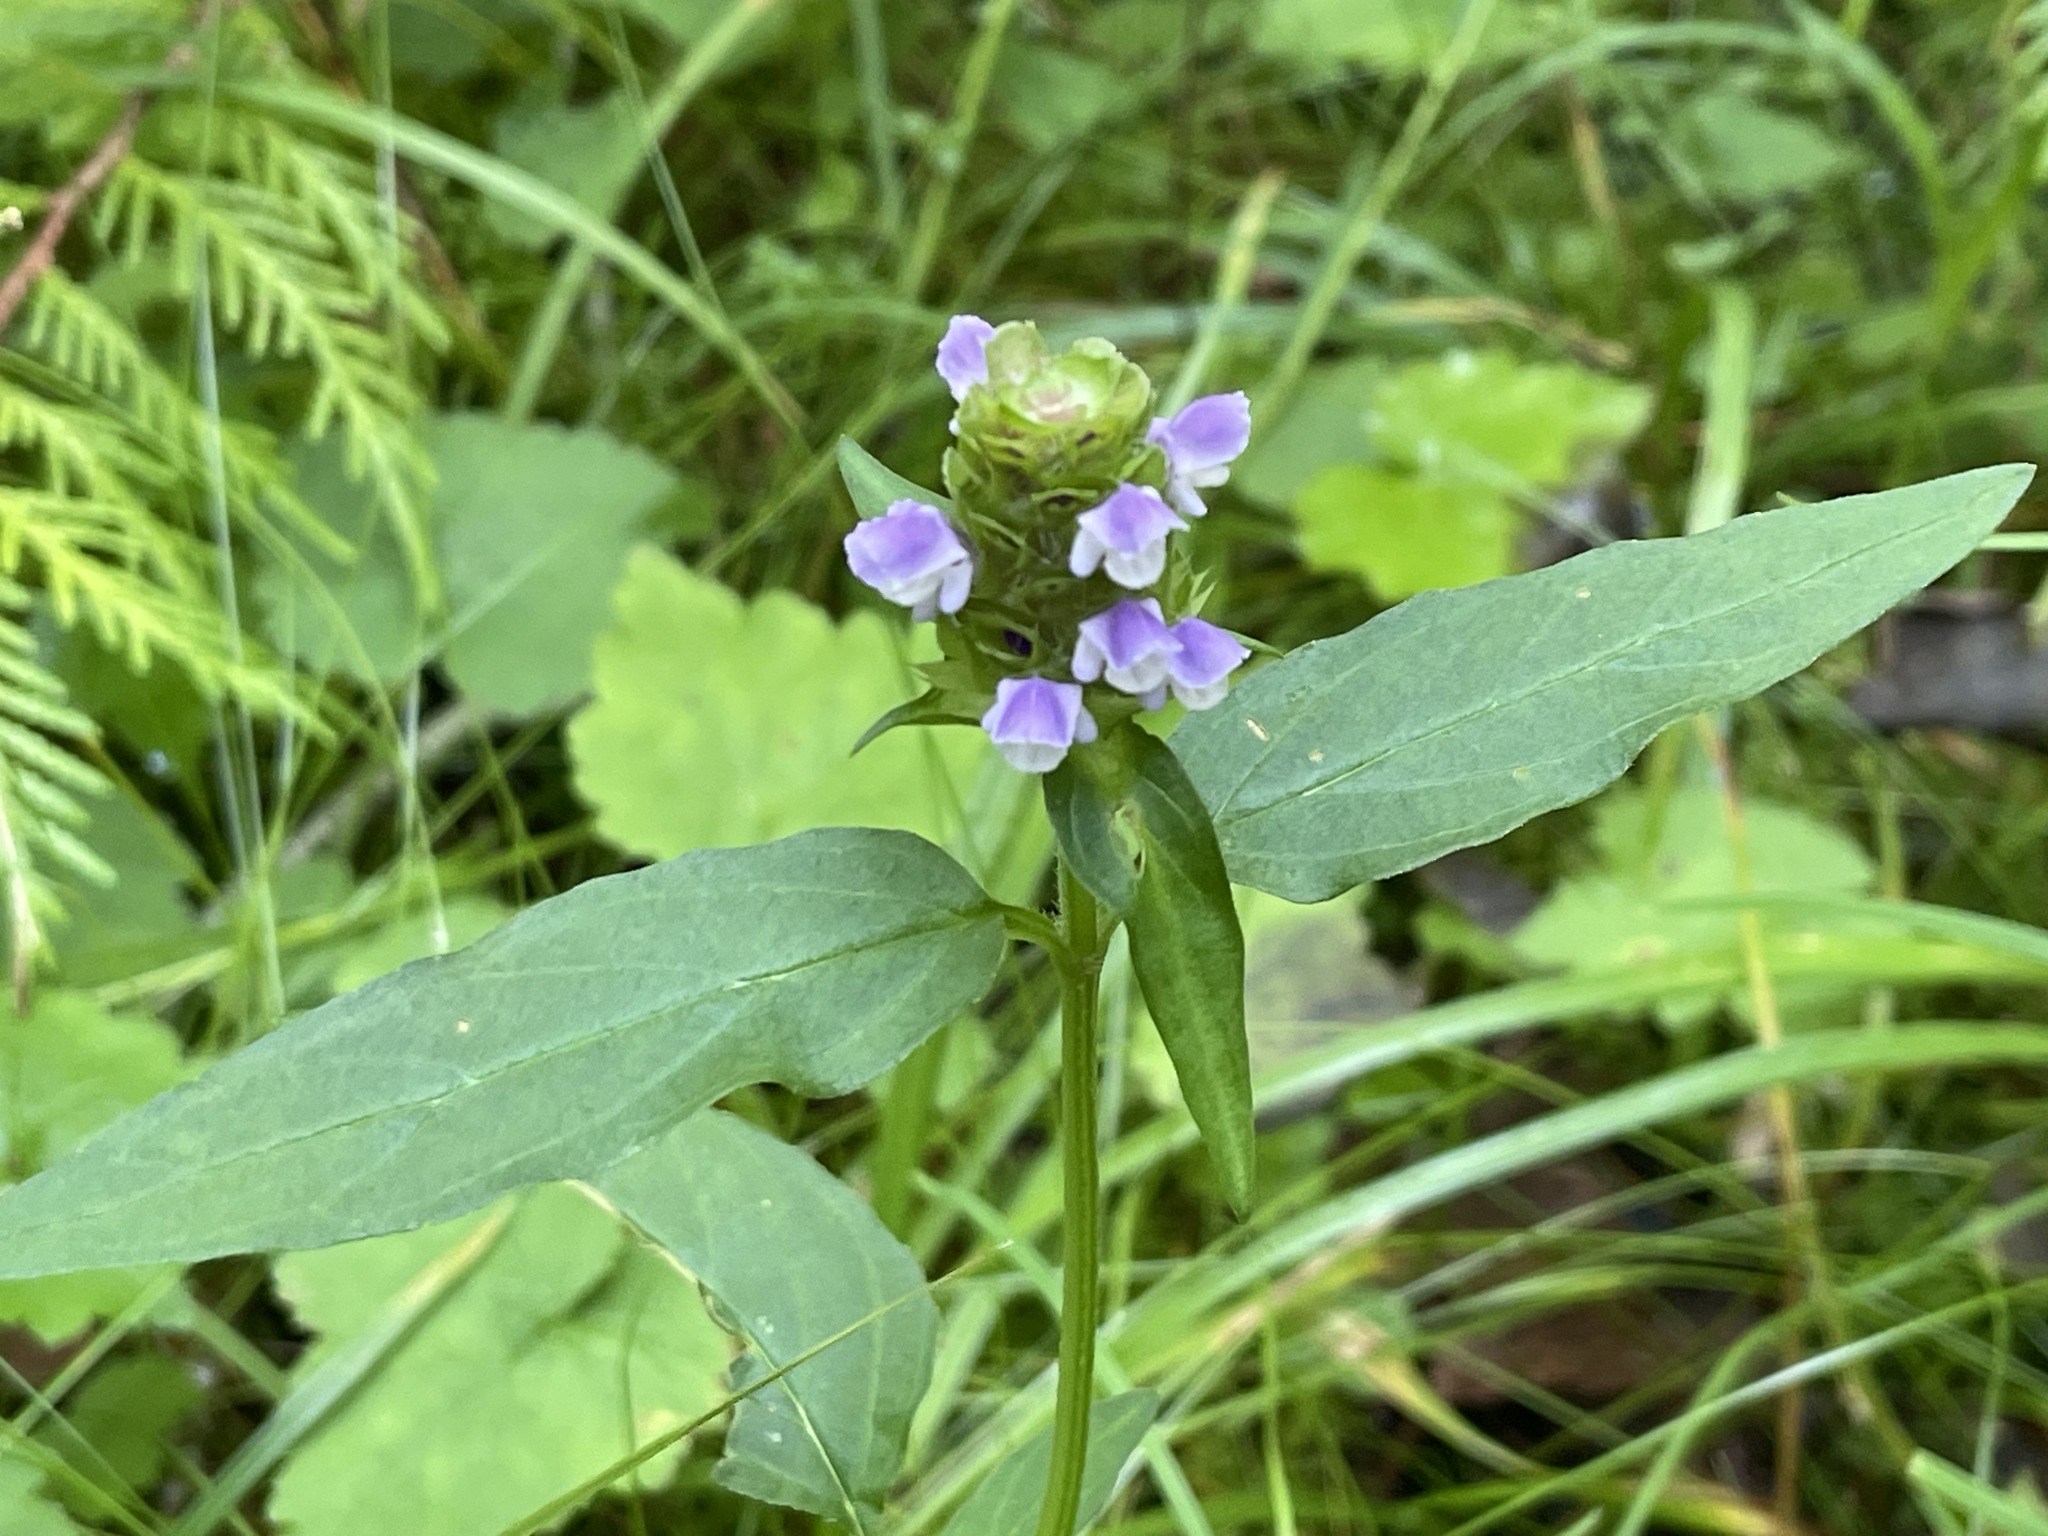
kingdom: Plantae
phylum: Tracheophyta
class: Magnoliopsida
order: Lamiales
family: Lamiaceae
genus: Prunella
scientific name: Prunella vulgaris
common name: Heal-all
